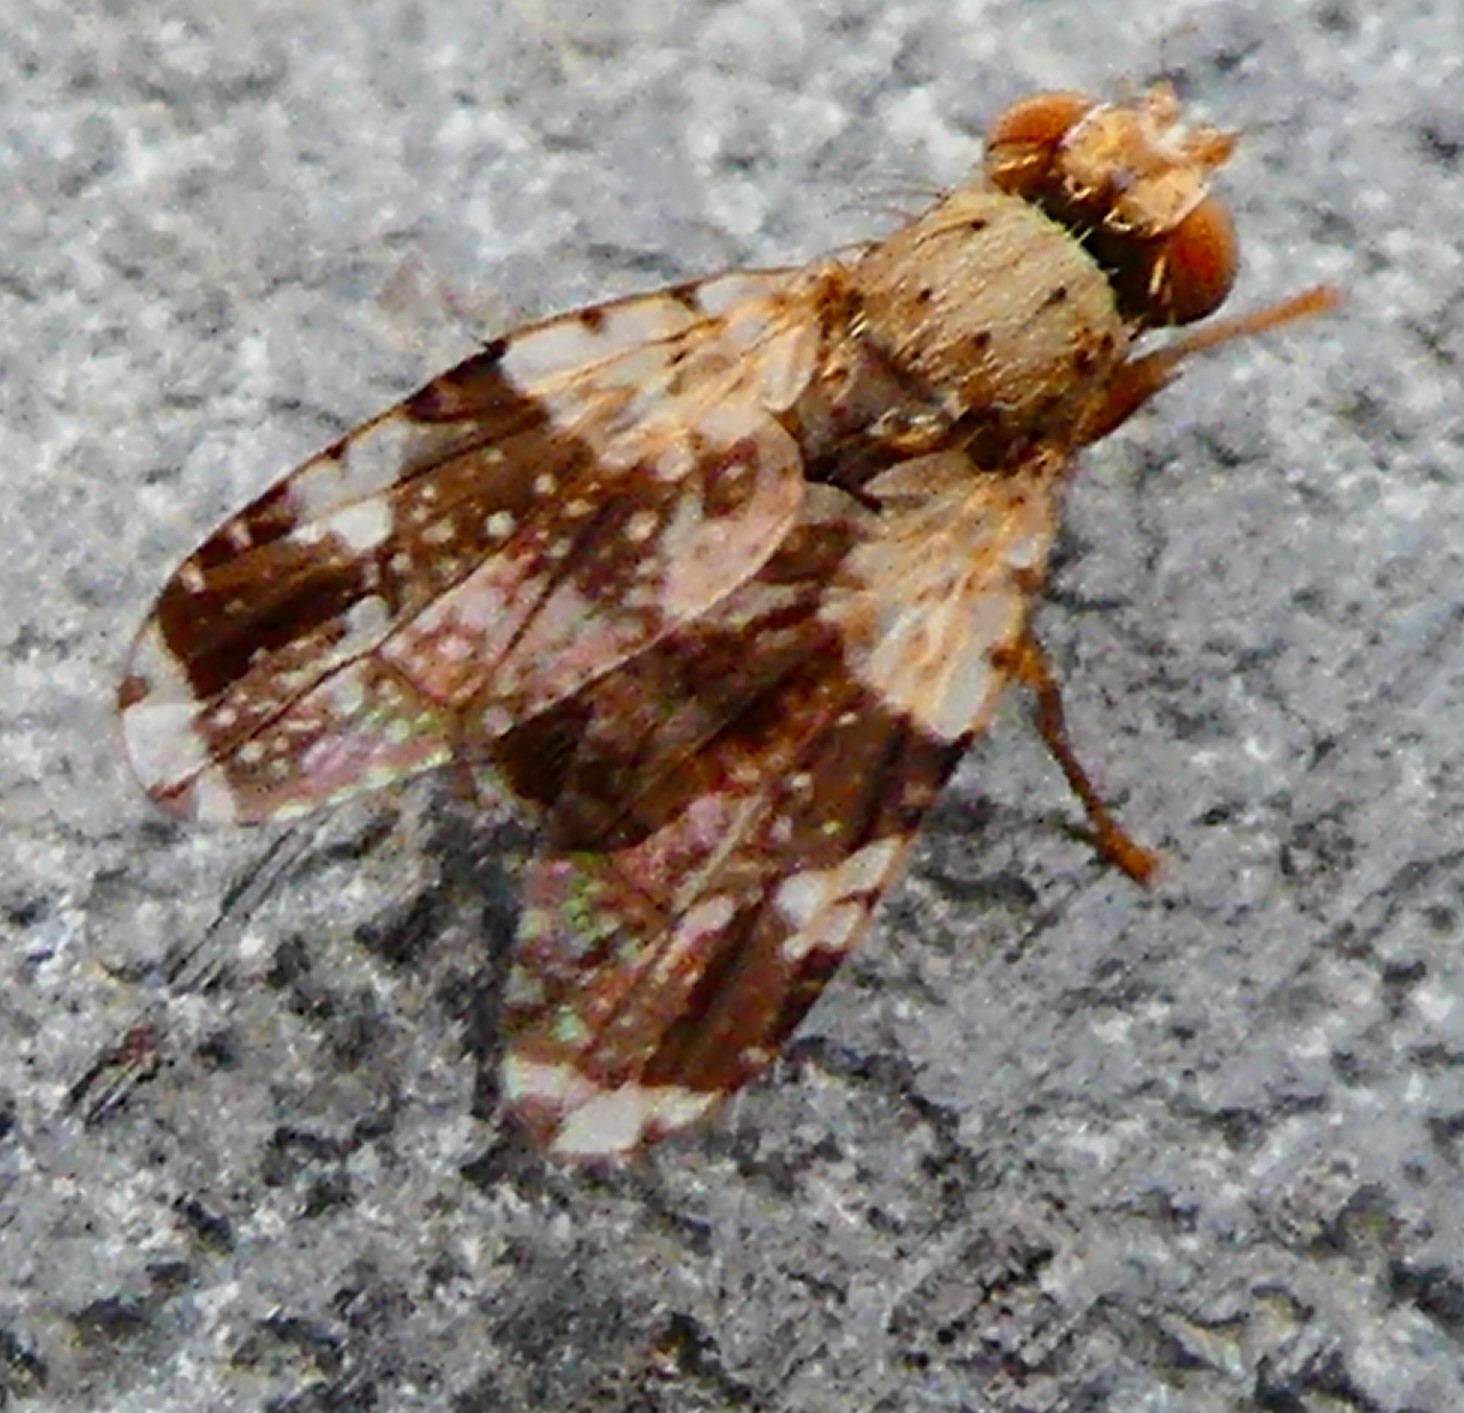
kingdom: Animalia
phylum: Arthropoda
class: Insecta
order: Diptera
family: Tephritidae
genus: Tephritis
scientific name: Tephritis formosa
